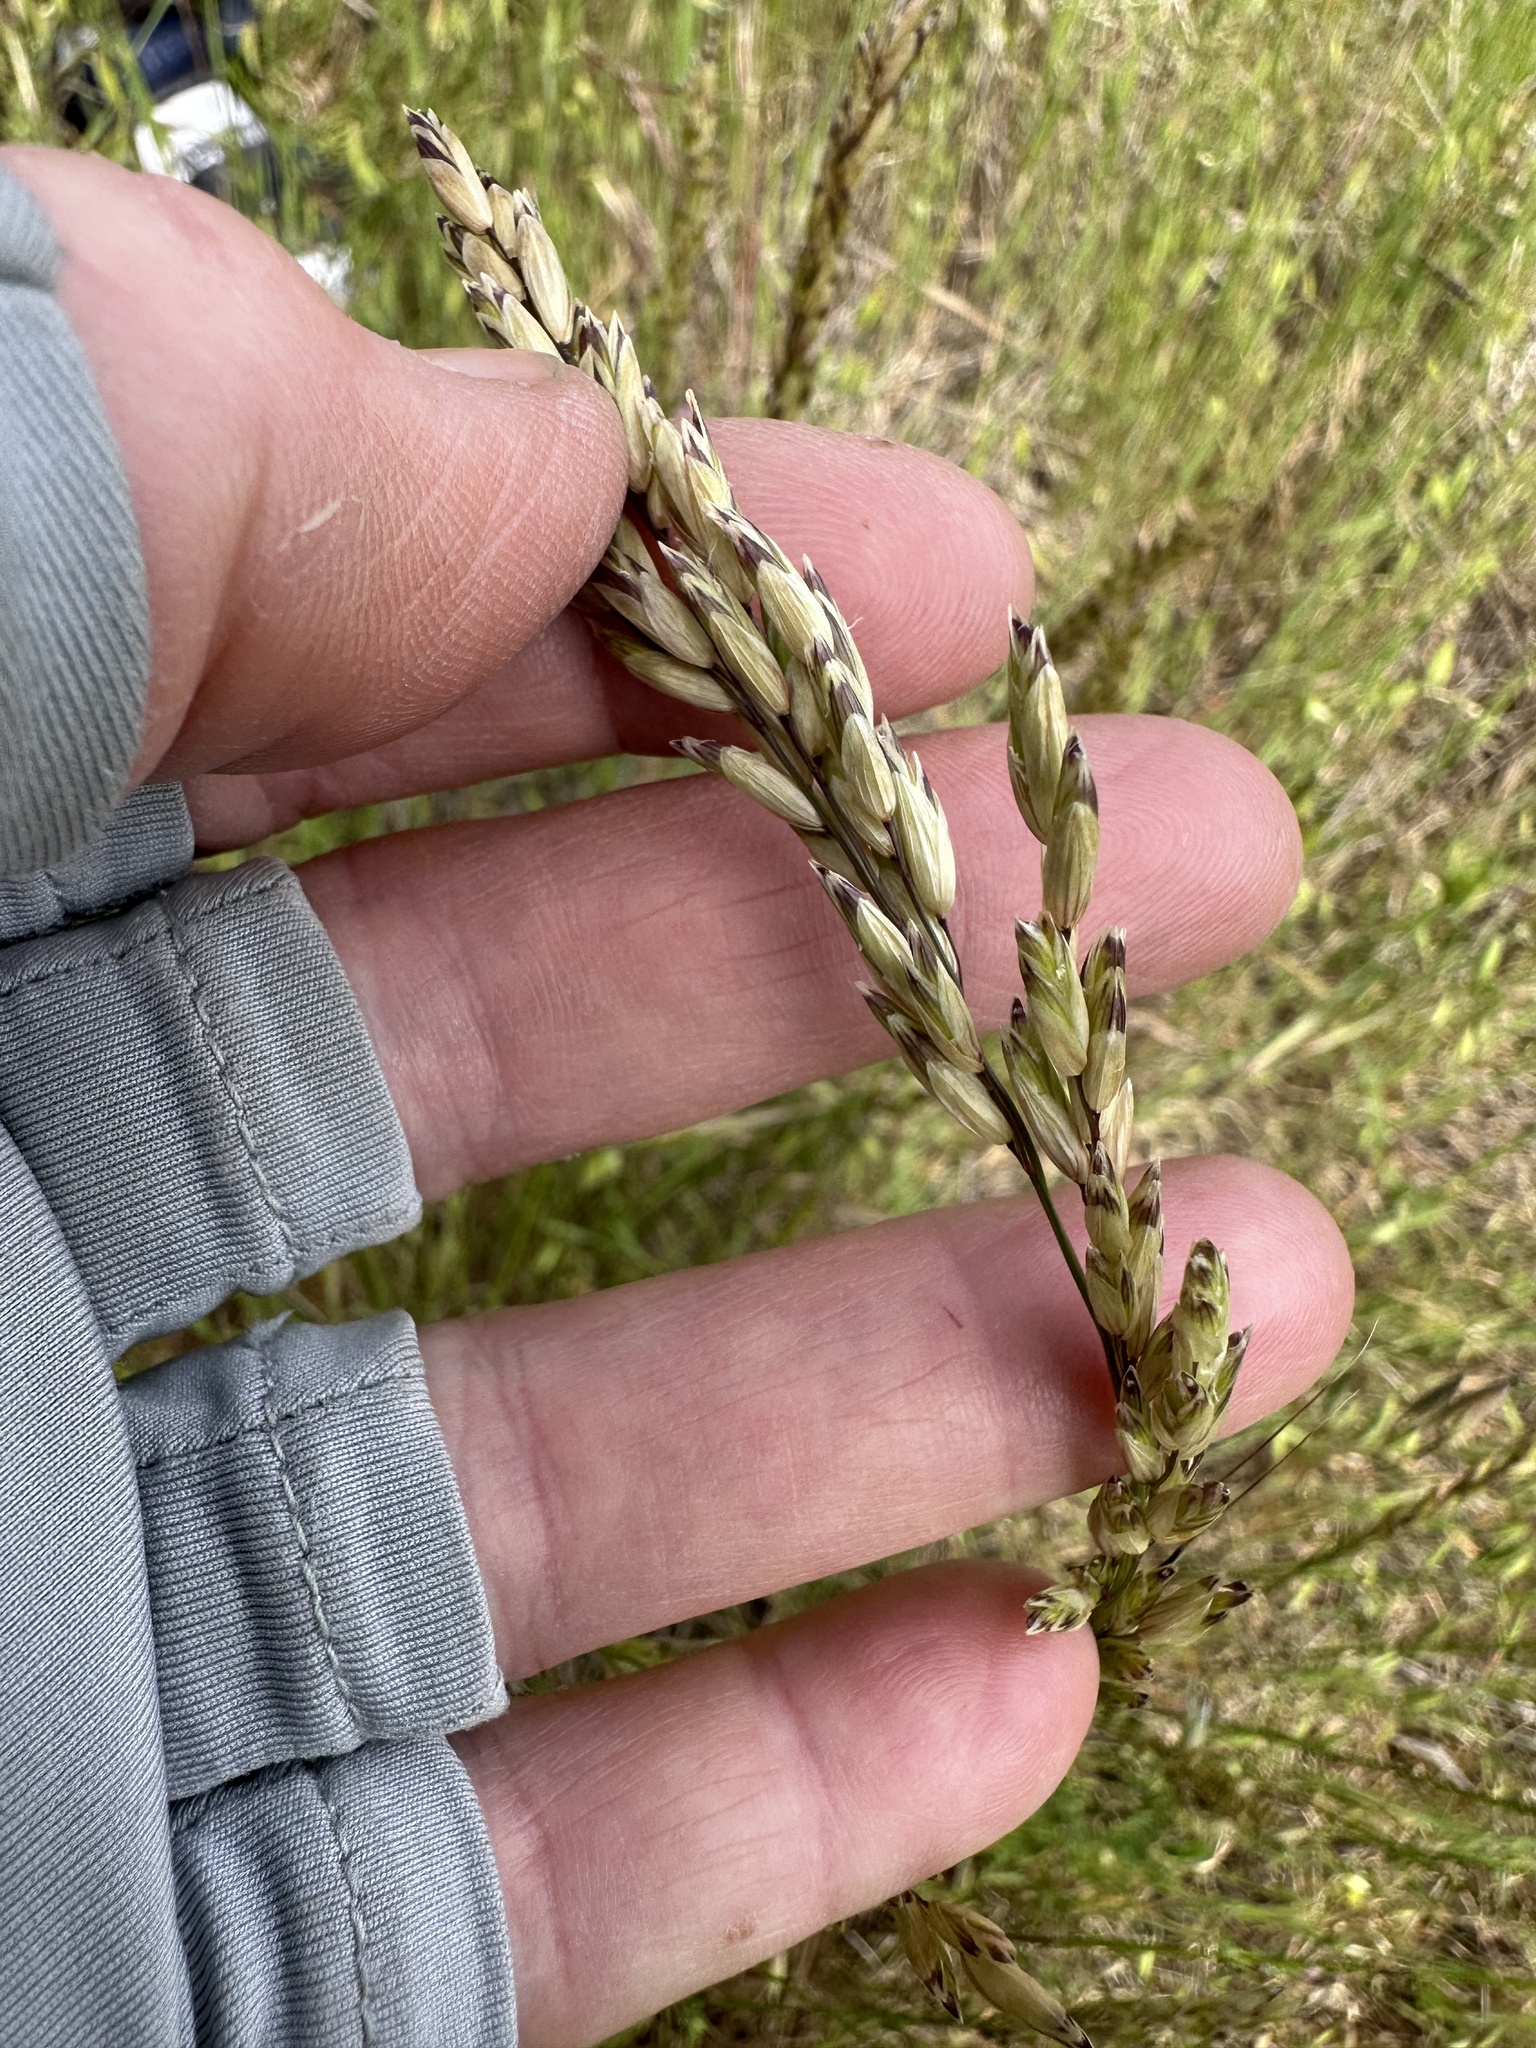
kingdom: Plantae
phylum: Tracheophyta
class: Liliopsida
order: Poales
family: Poaceae
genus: Melica
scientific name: Melica californica
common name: California melic
